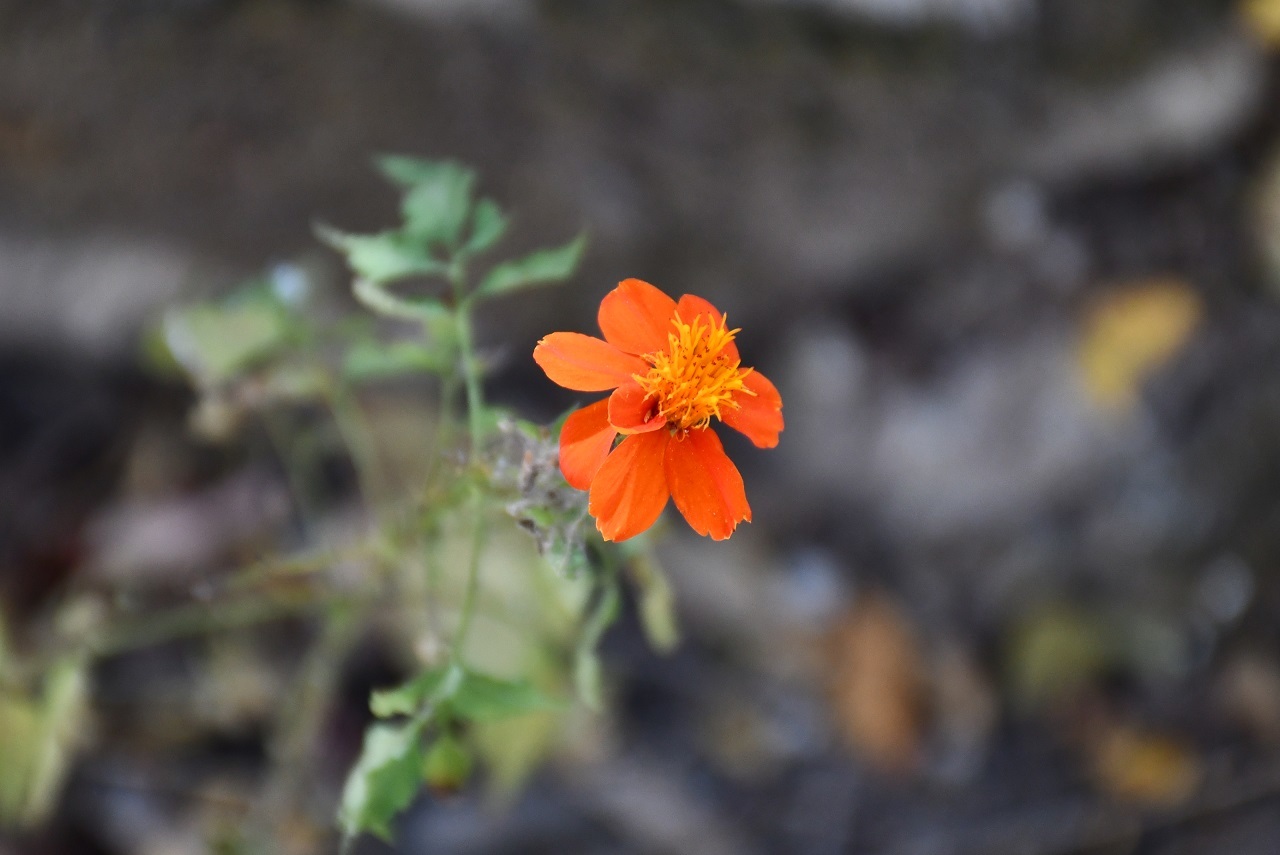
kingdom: Plantae
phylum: Tracheophyta
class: Magnoliopsida
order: Asterales
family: Asteraceae
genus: Adenophyllum
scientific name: Adenophyllum aurantium
